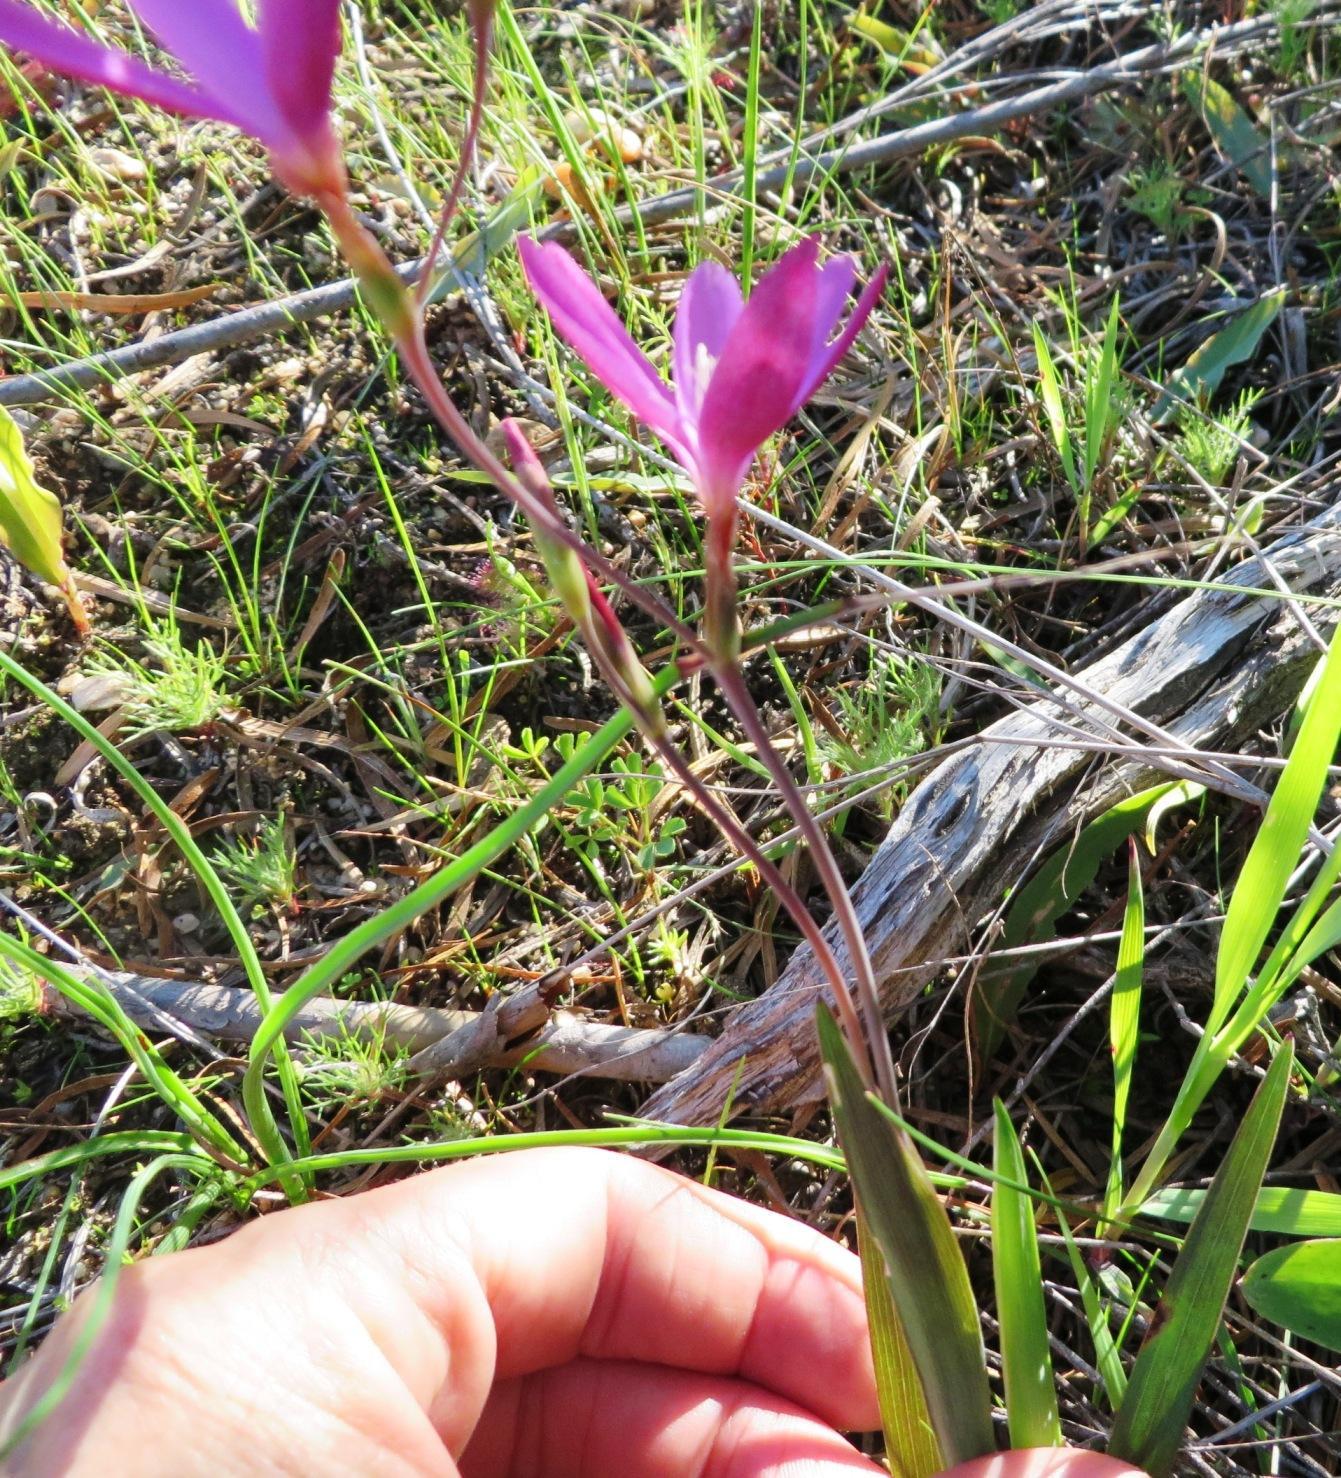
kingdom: Plantae
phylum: Tracheophyta
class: Liliopsida
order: Asparagales
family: Iridaceae
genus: Hesperantha
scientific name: Hesperantha pauciflora
